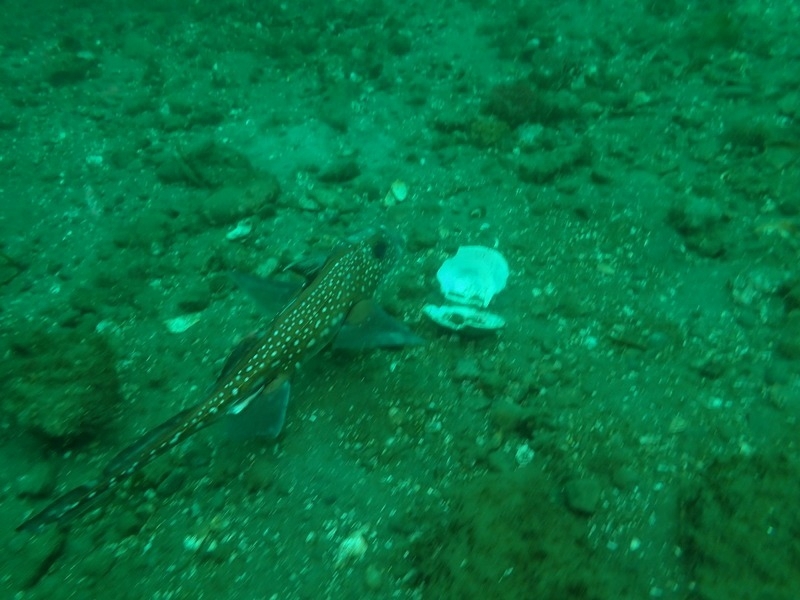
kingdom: Animalia
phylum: Chordata
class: Holocephali
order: Chimaeriformes
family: Chimaeridae
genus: Hydrolagus
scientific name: Hydrolagus colliei
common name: Ratfish
